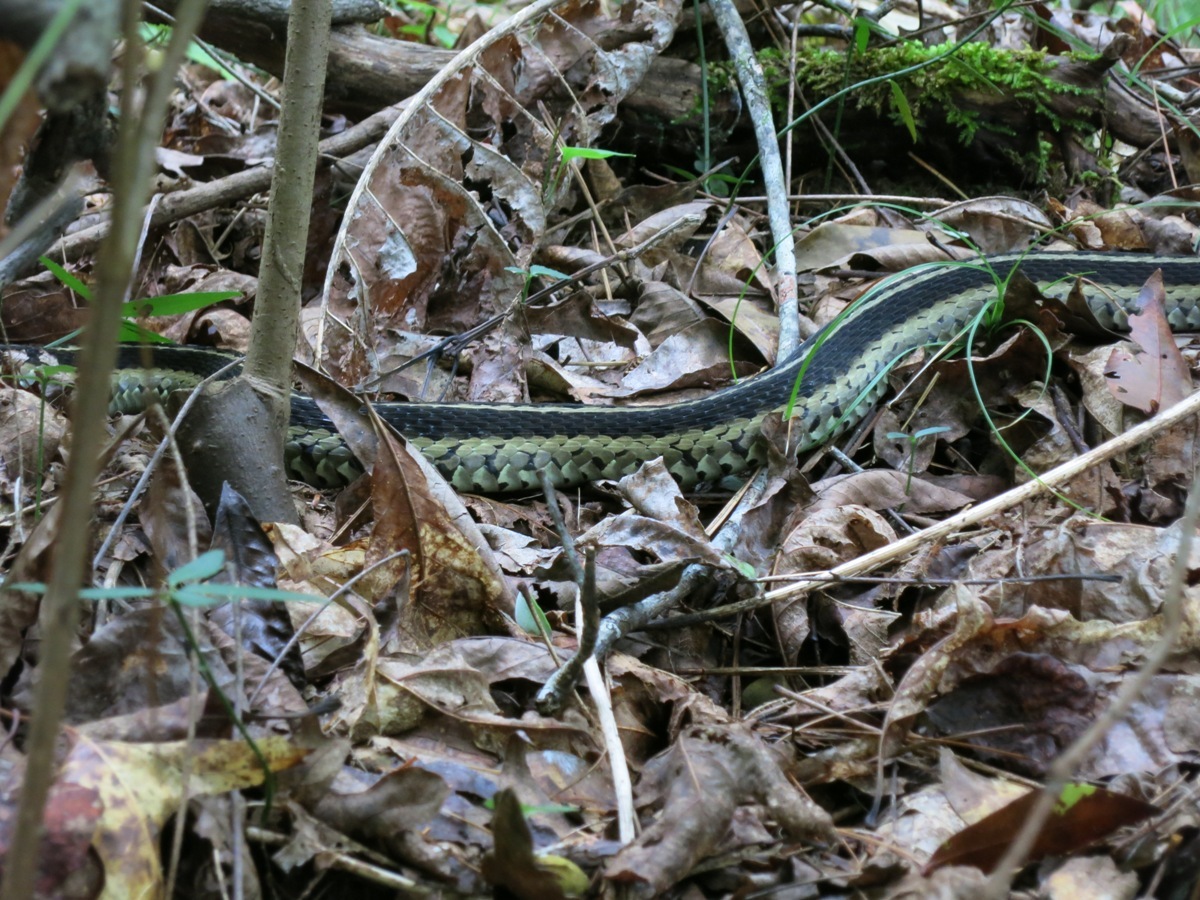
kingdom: Animalia
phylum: Chordata
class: Squamata
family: Colubridae
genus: Thamnophis
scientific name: Thamnophis sirtalis
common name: Common garter snake
